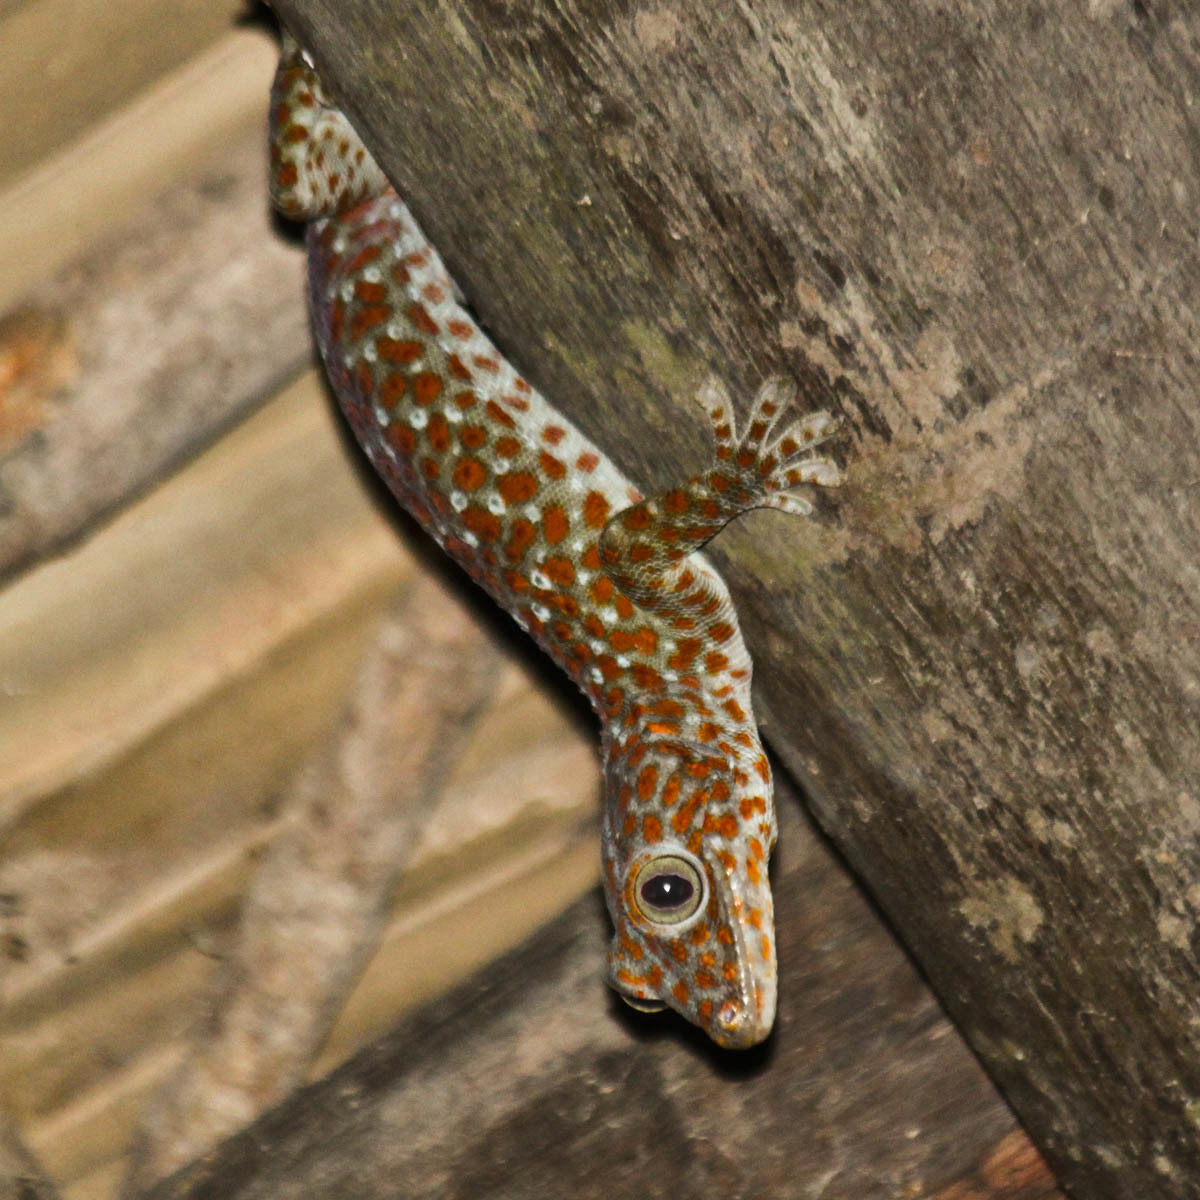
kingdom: Animalia
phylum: Chordata
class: Squamata
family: Gekkonidae
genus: Gekko
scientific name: Gekko gecko
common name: Tokay gecko
